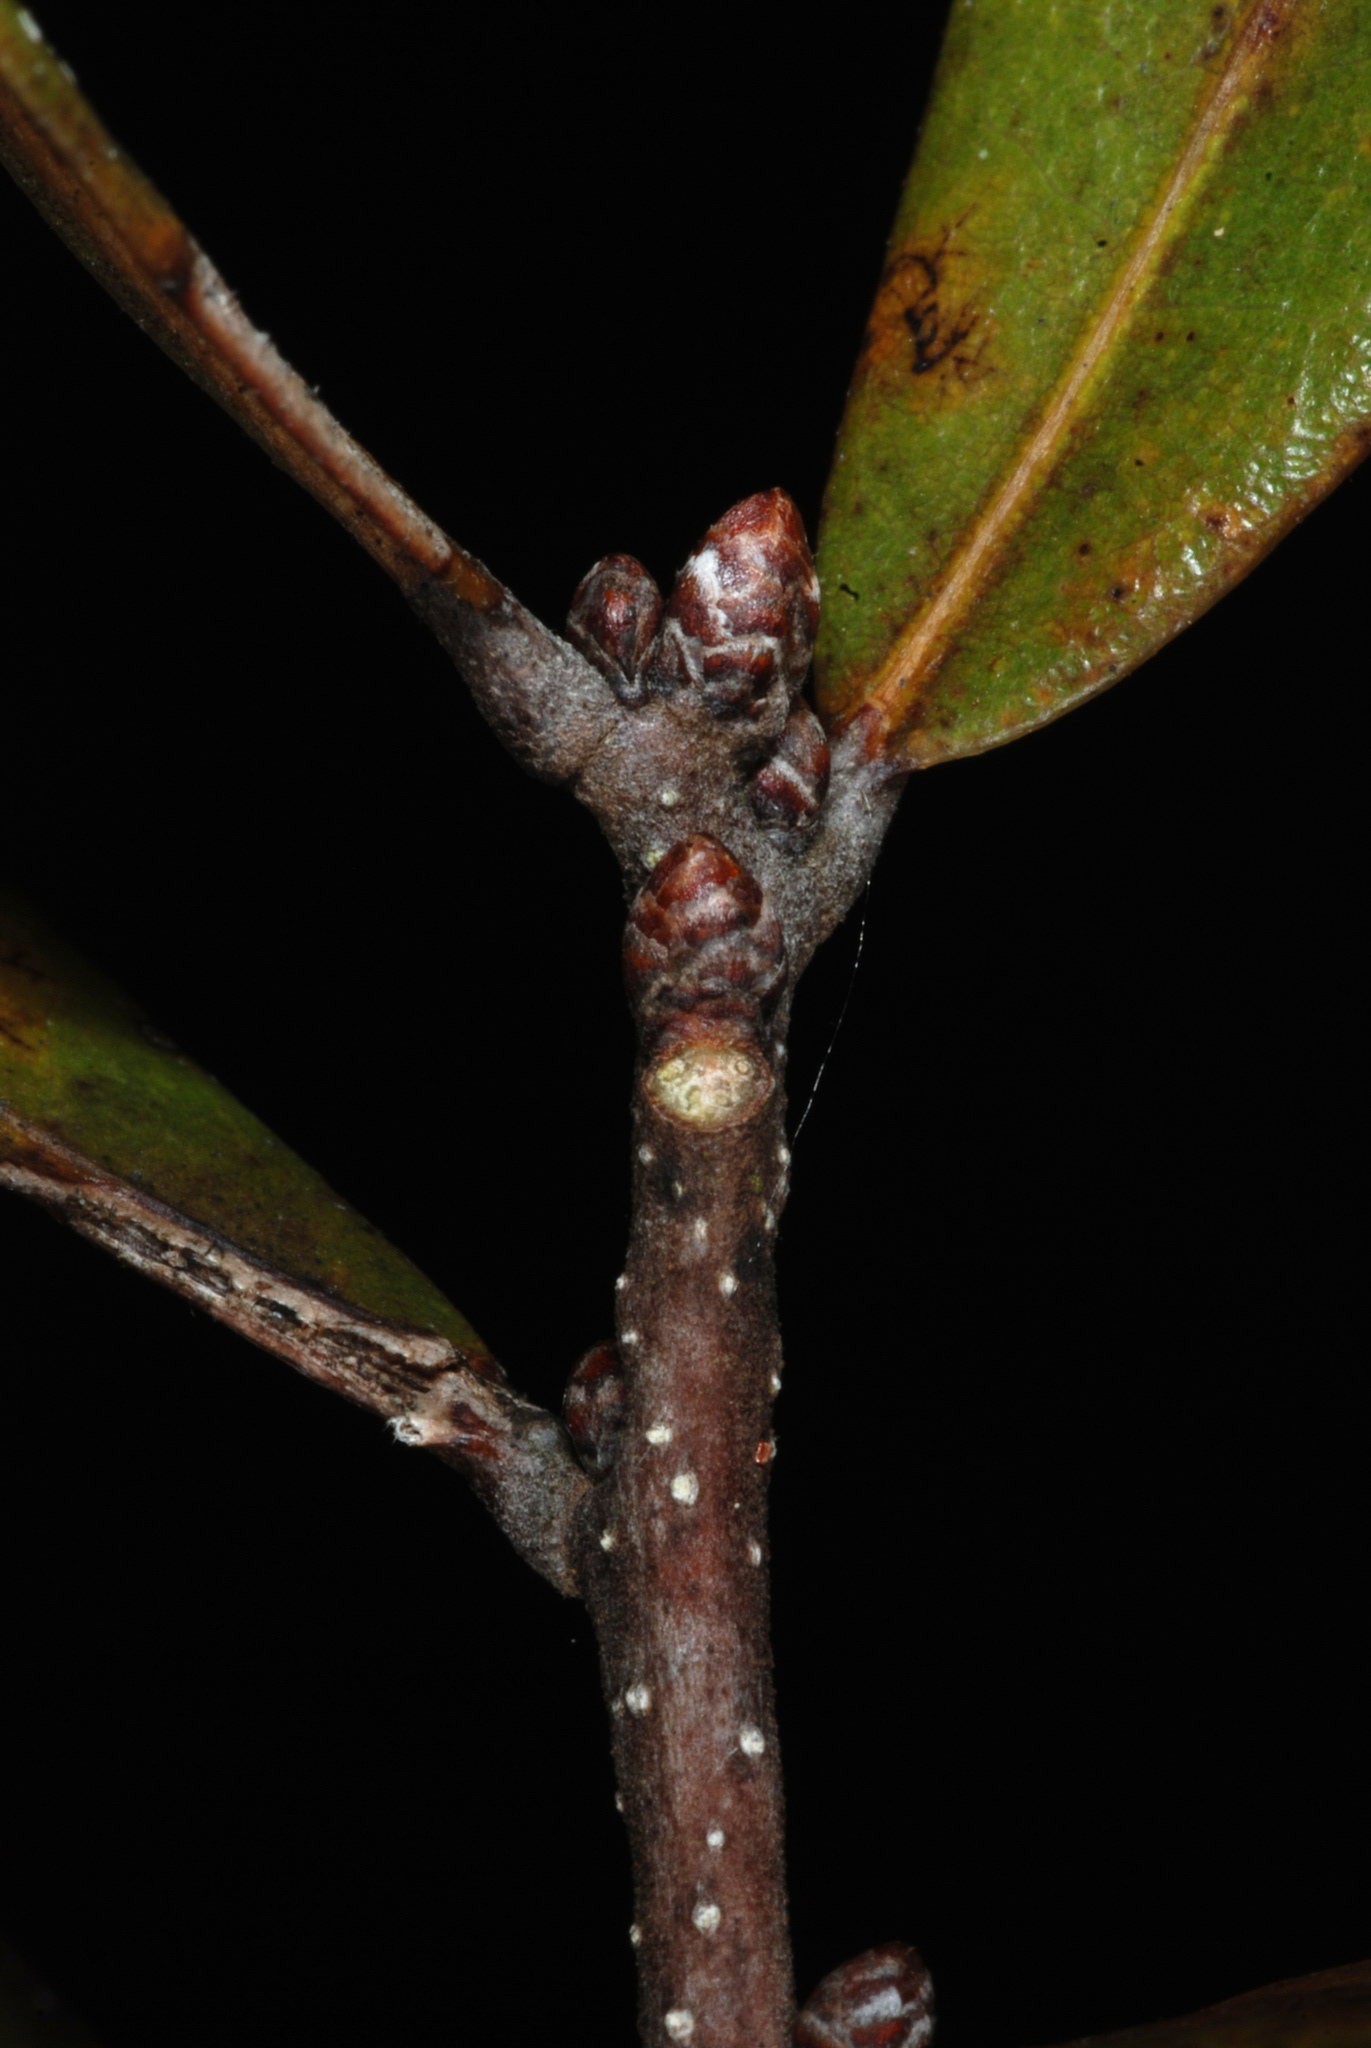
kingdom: Plantae
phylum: Tracheophyta
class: Magnoliopsida
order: Fagales
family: Fagaceae
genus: Quercus
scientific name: Quercus rolfsii
